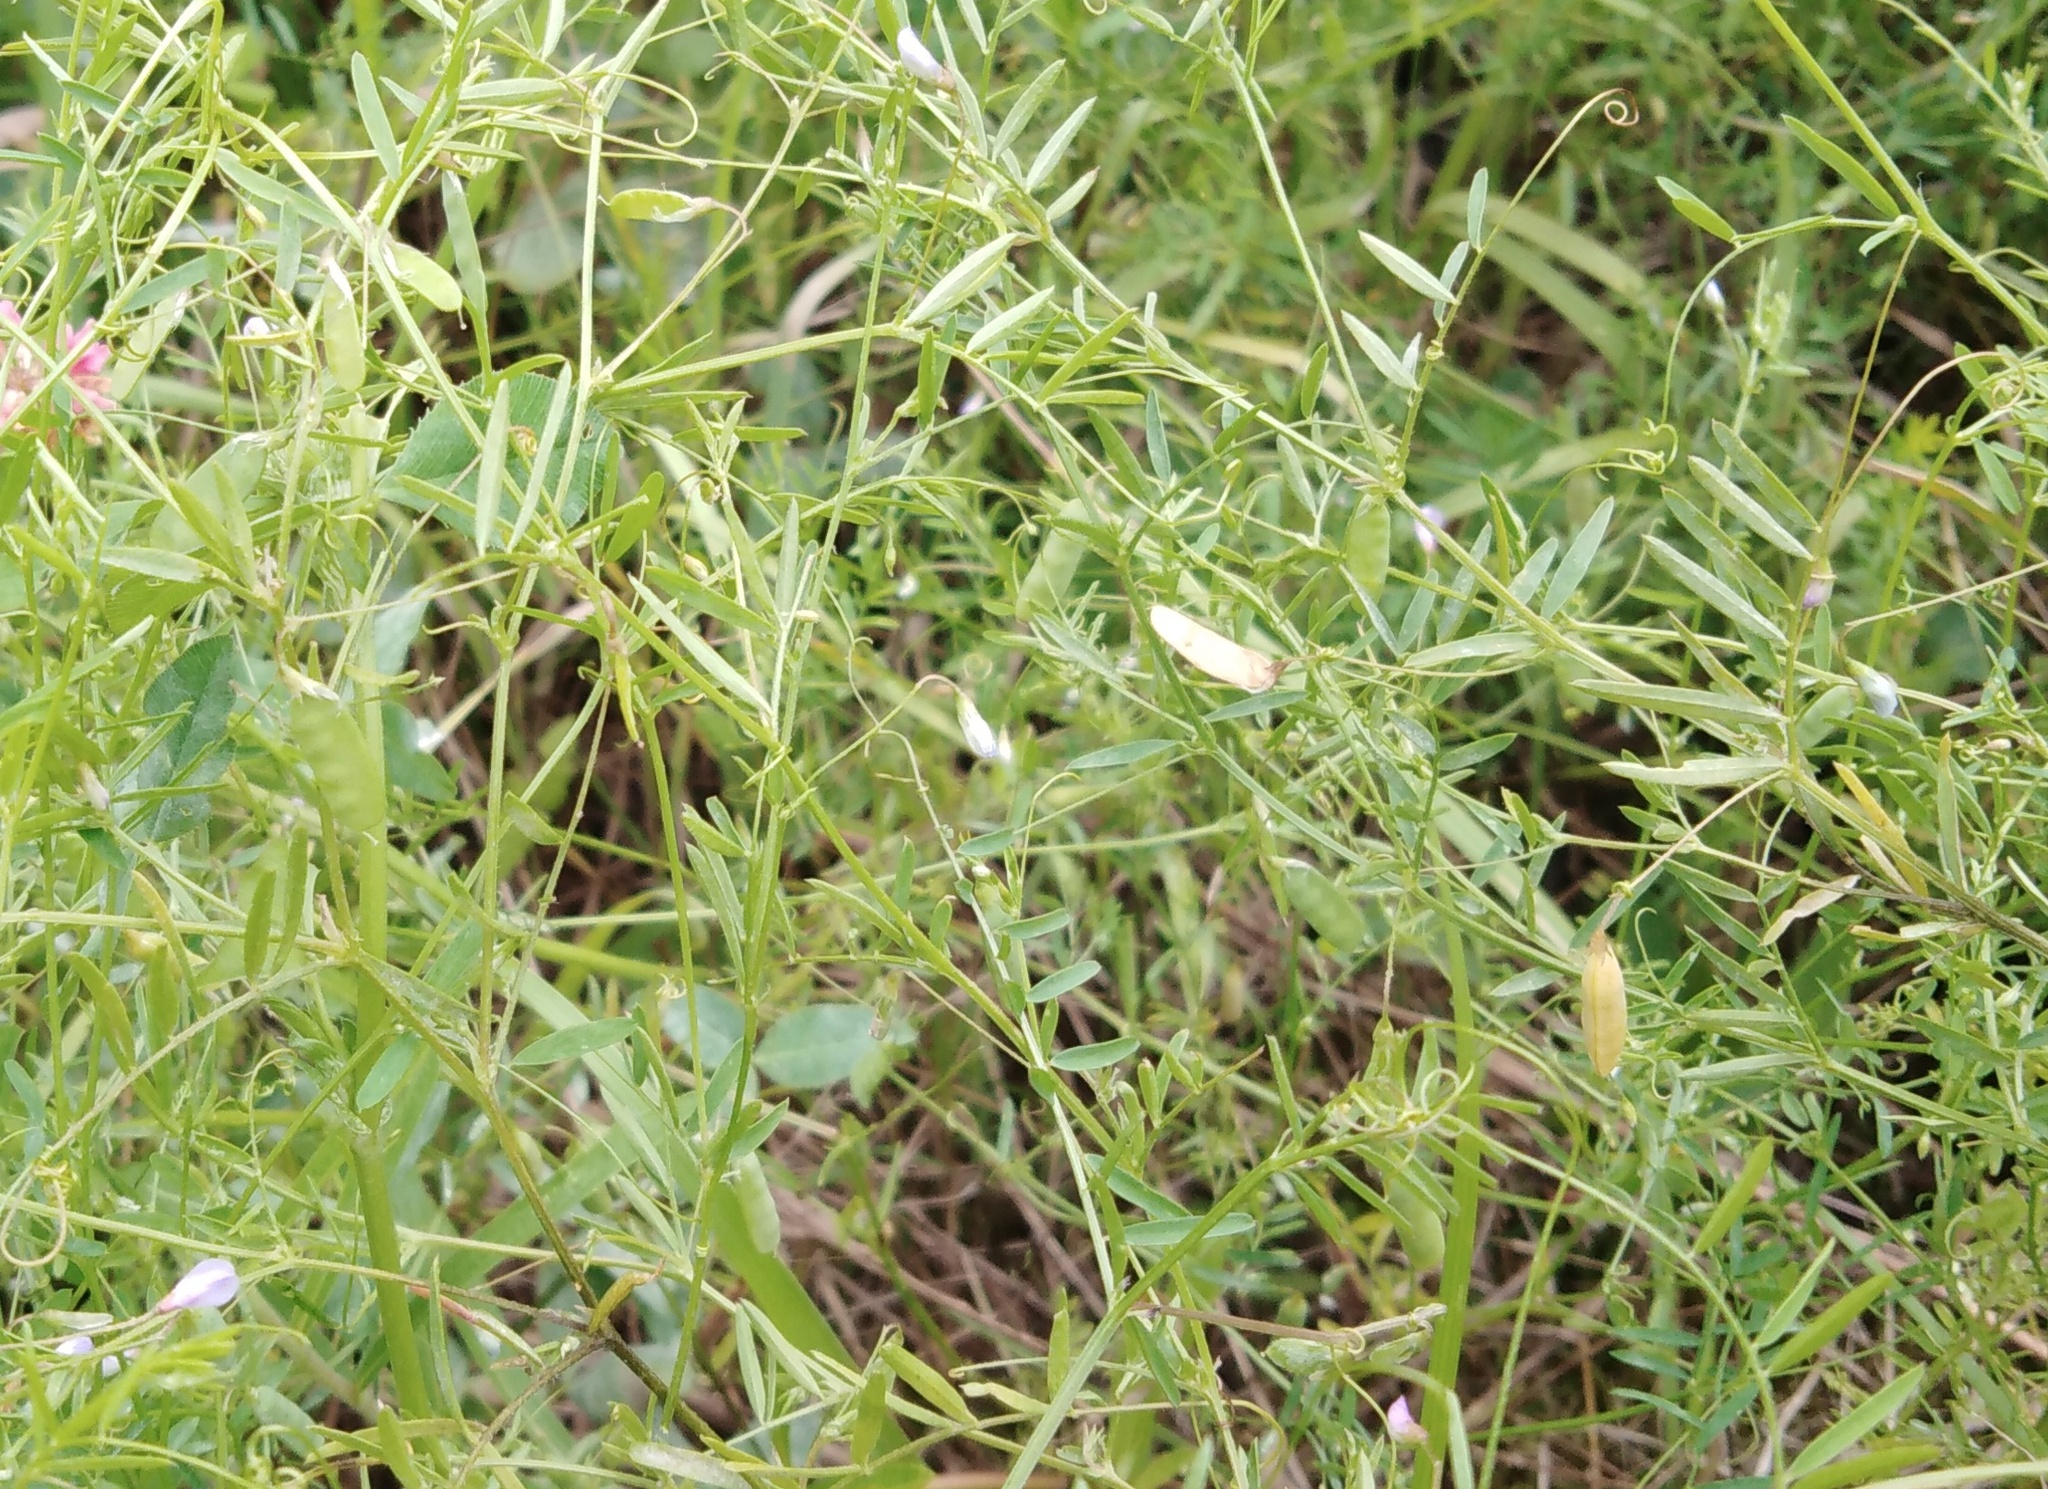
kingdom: Plantae
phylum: Tracheophyta
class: Magnoliopsida
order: Fabales
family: Fabaceae
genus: Vicia
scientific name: Vicia tetrasperma
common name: Smooth tare
